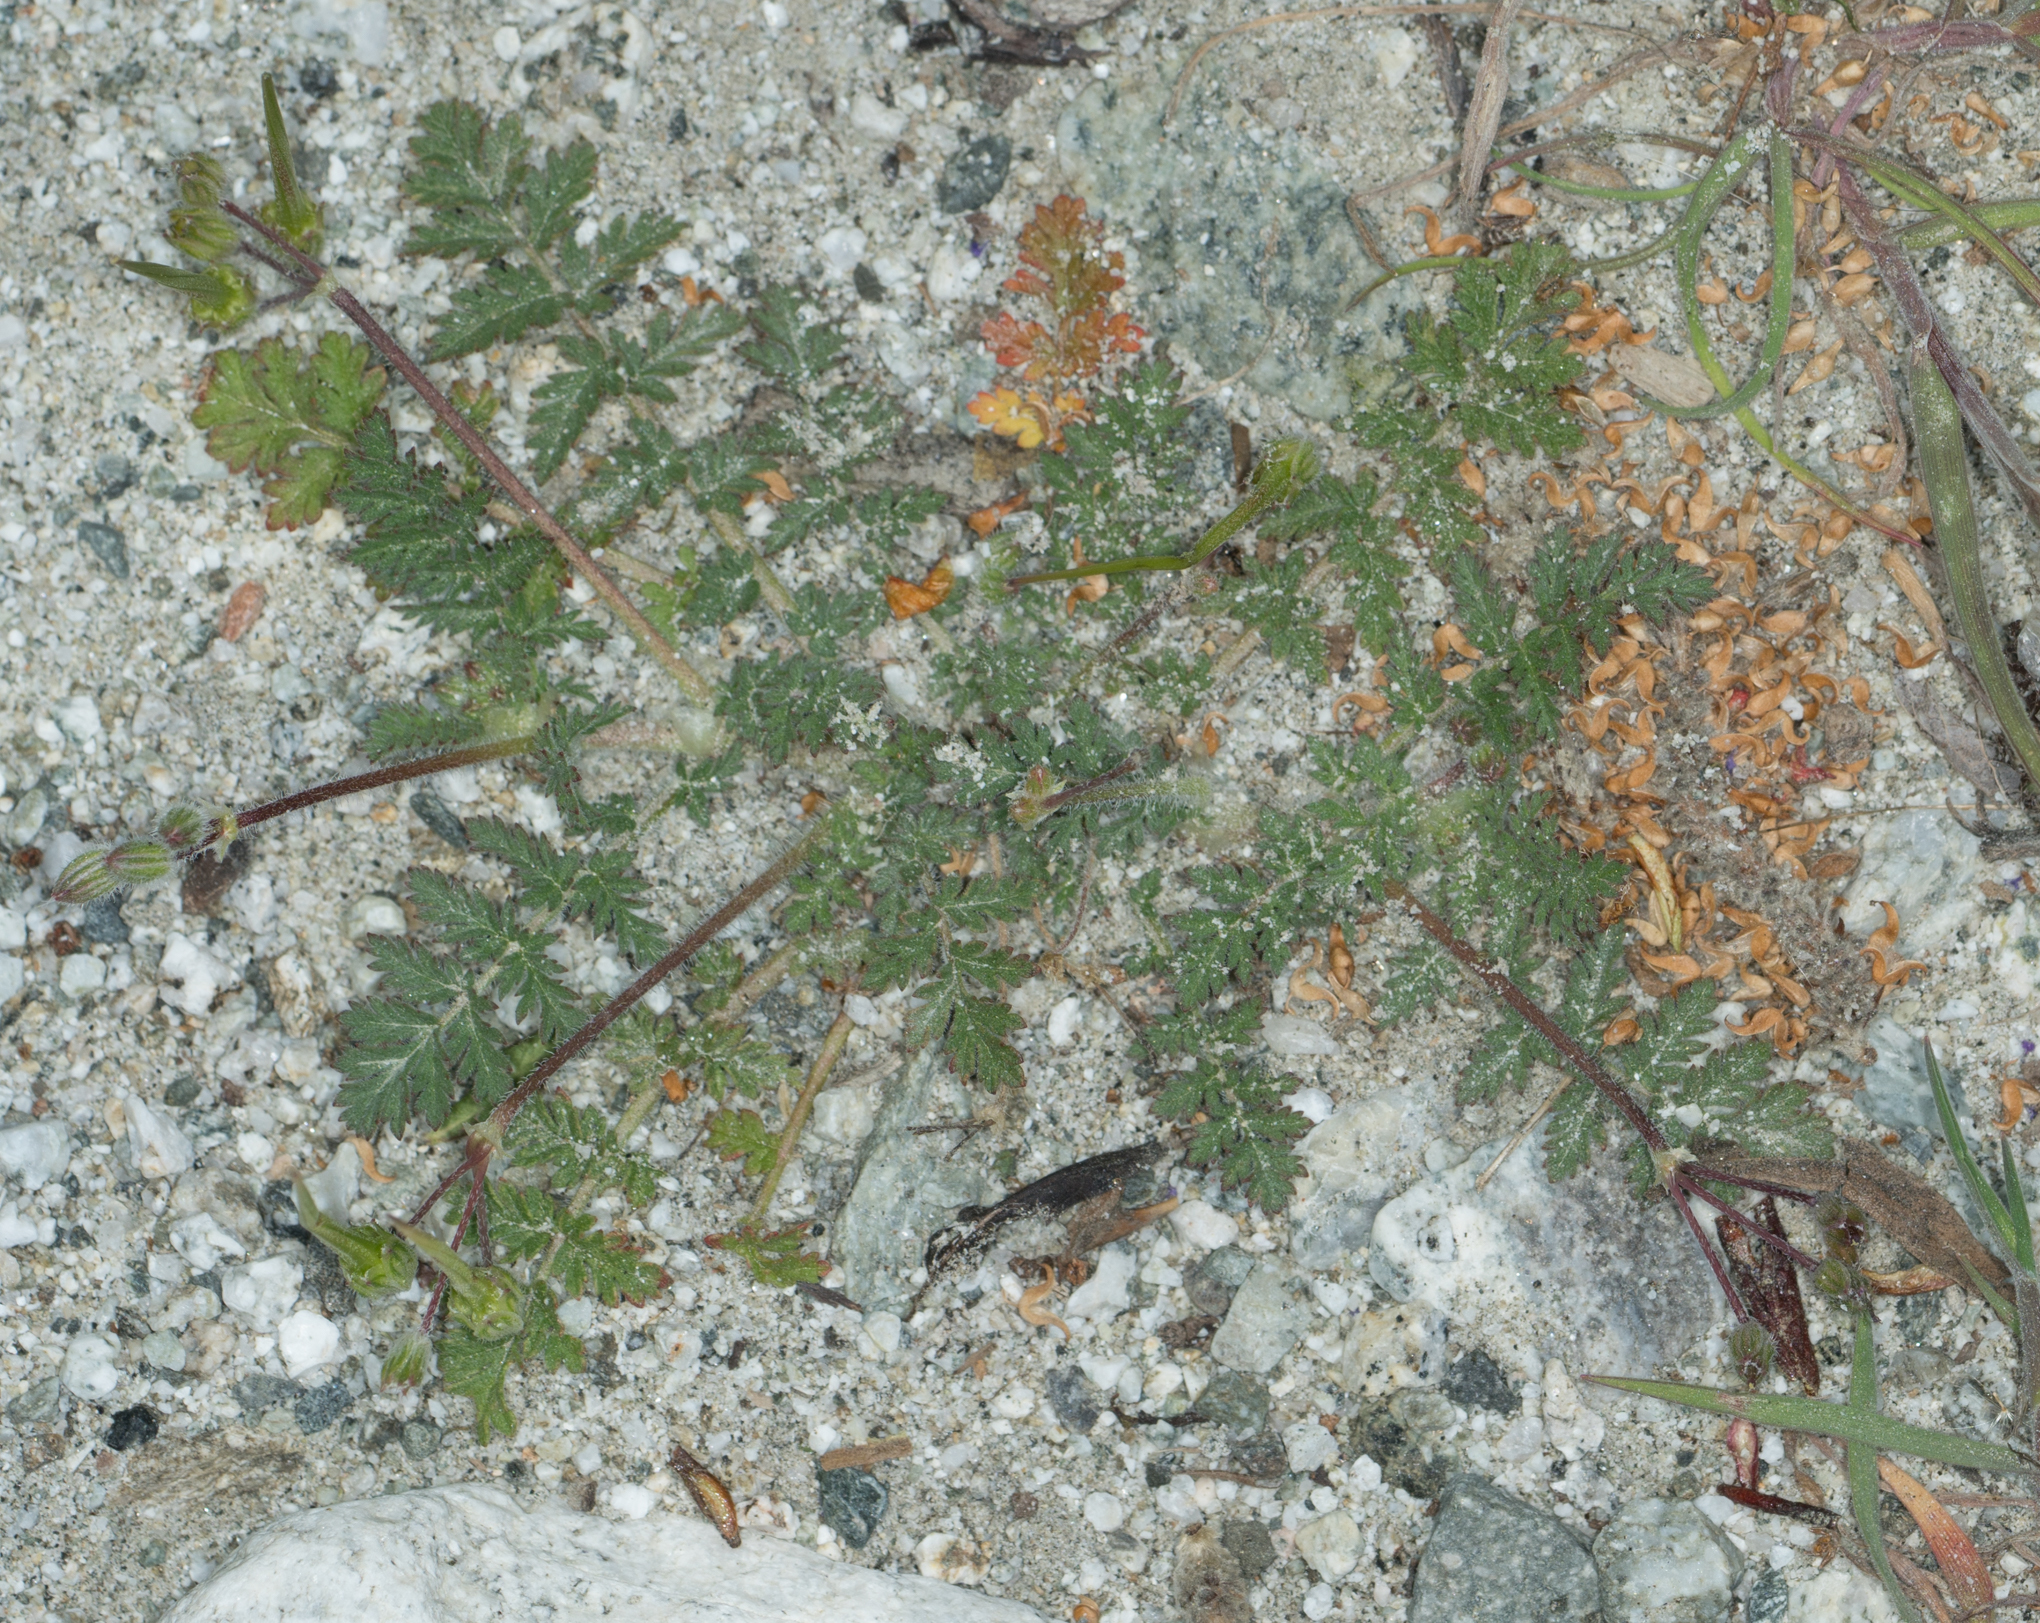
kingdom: Plantae
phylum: Tracheophyta
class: Magnoliopsida
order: Geraniales
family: Geraniaceae
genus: Erodium
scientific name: Erodium cicutarium
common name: Common stork's-bill
